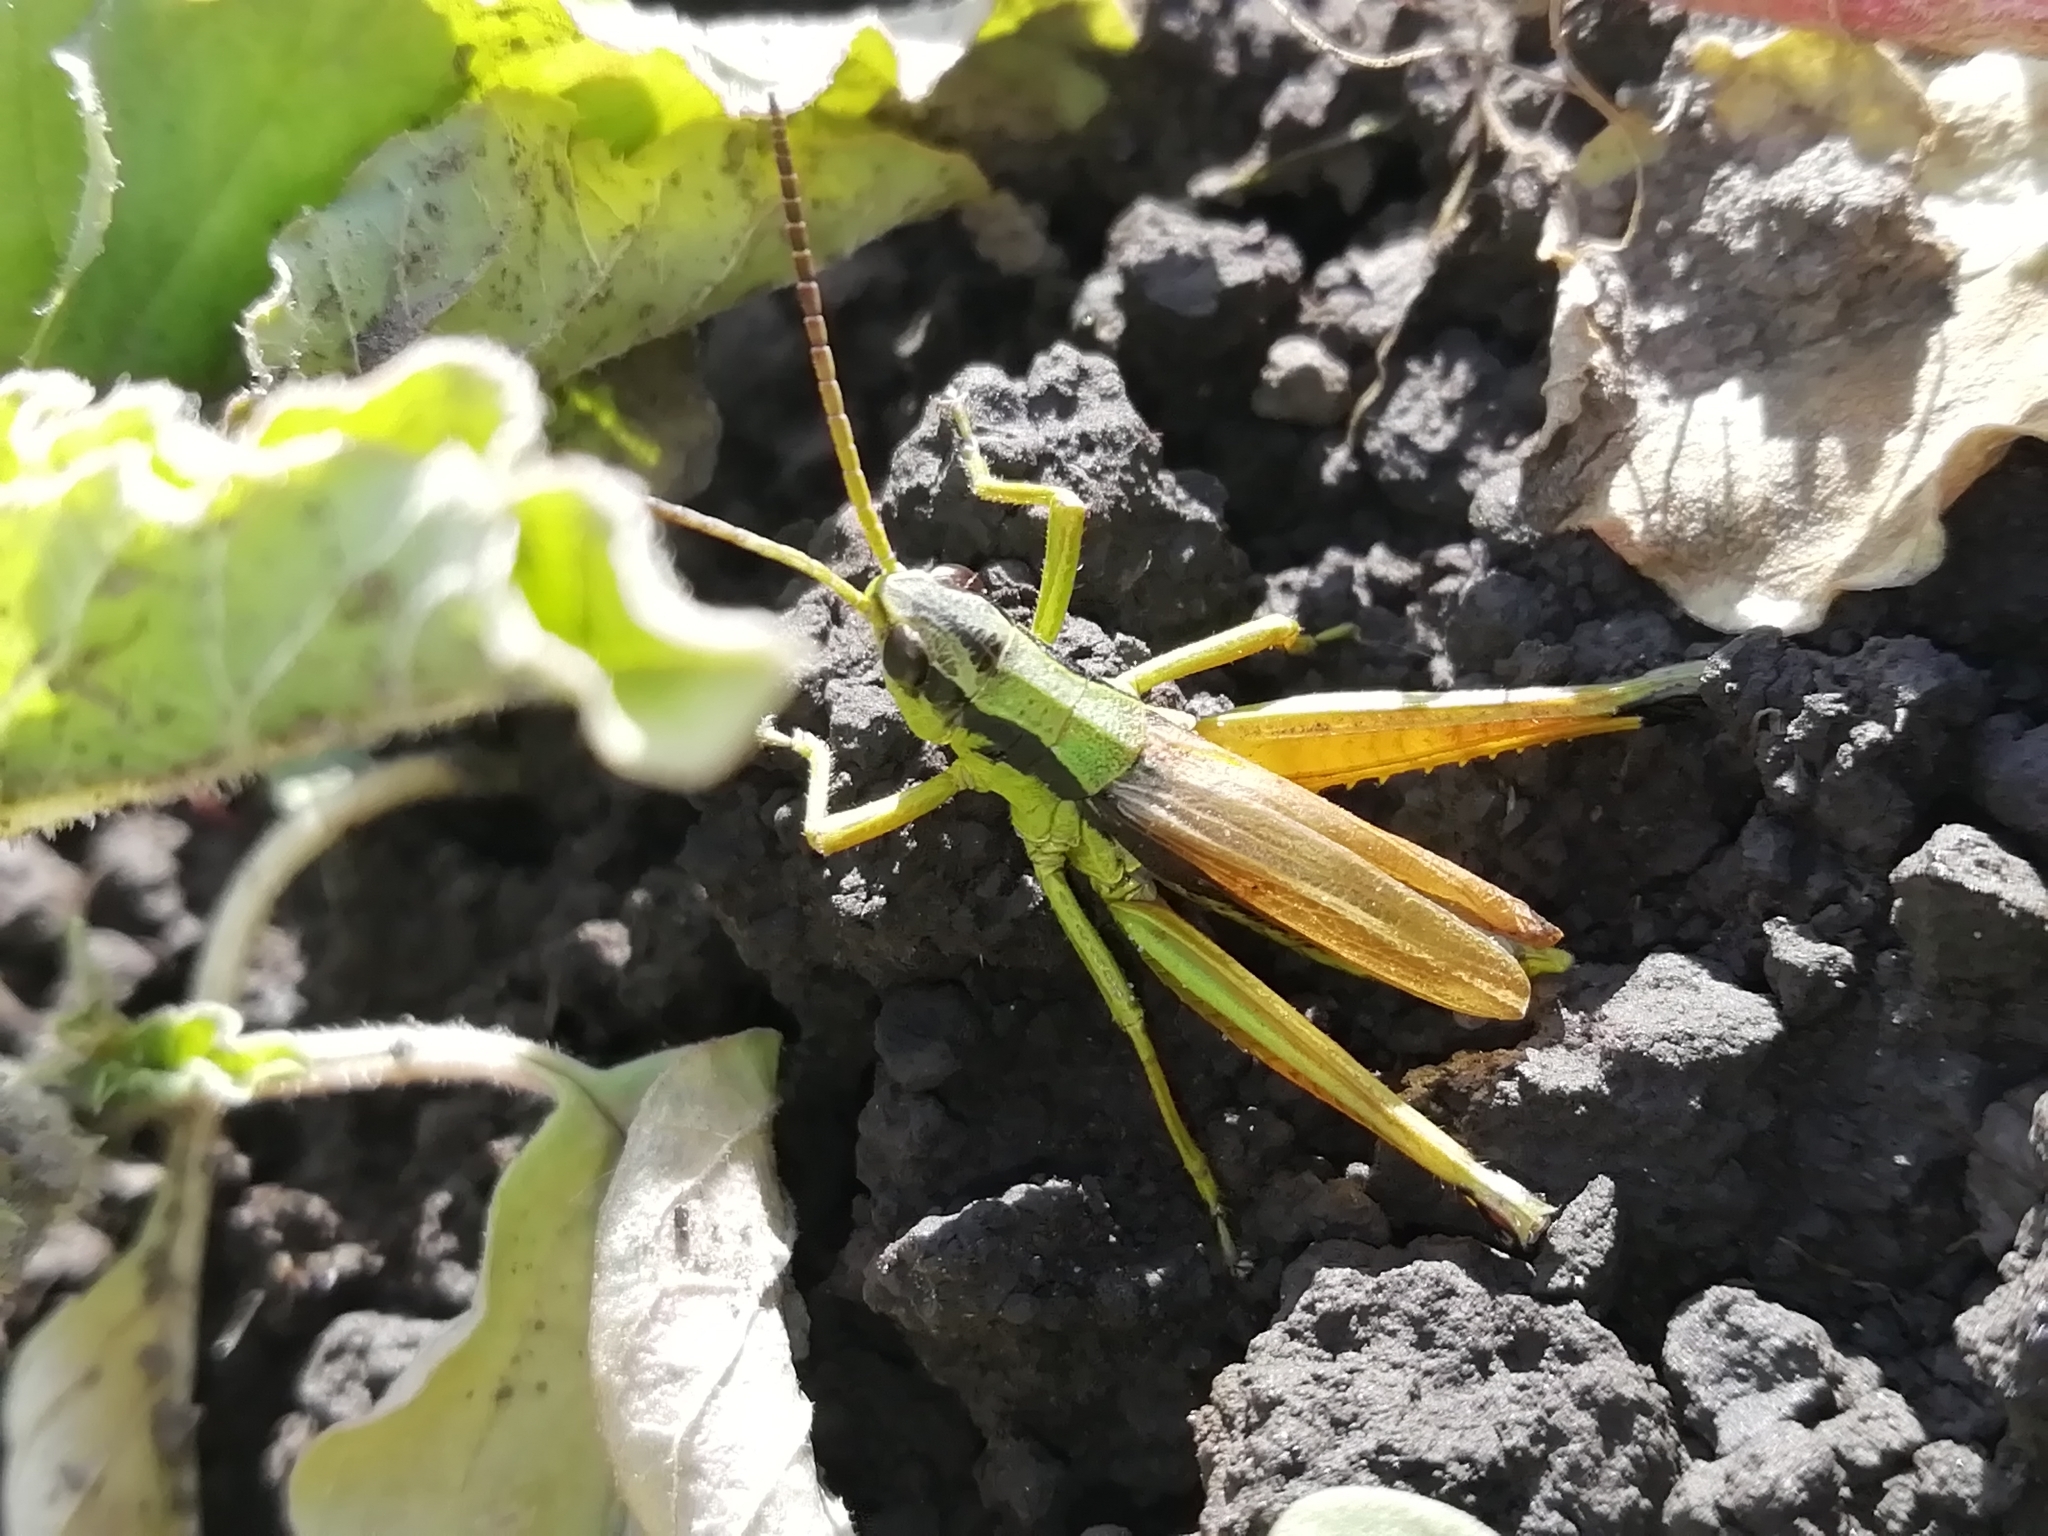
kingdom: Animalia
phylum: Arthropoda
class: Insecta
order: Orthoptera
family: Acrididae
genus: Podismopsis
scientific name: Podismopsis poppiusi
